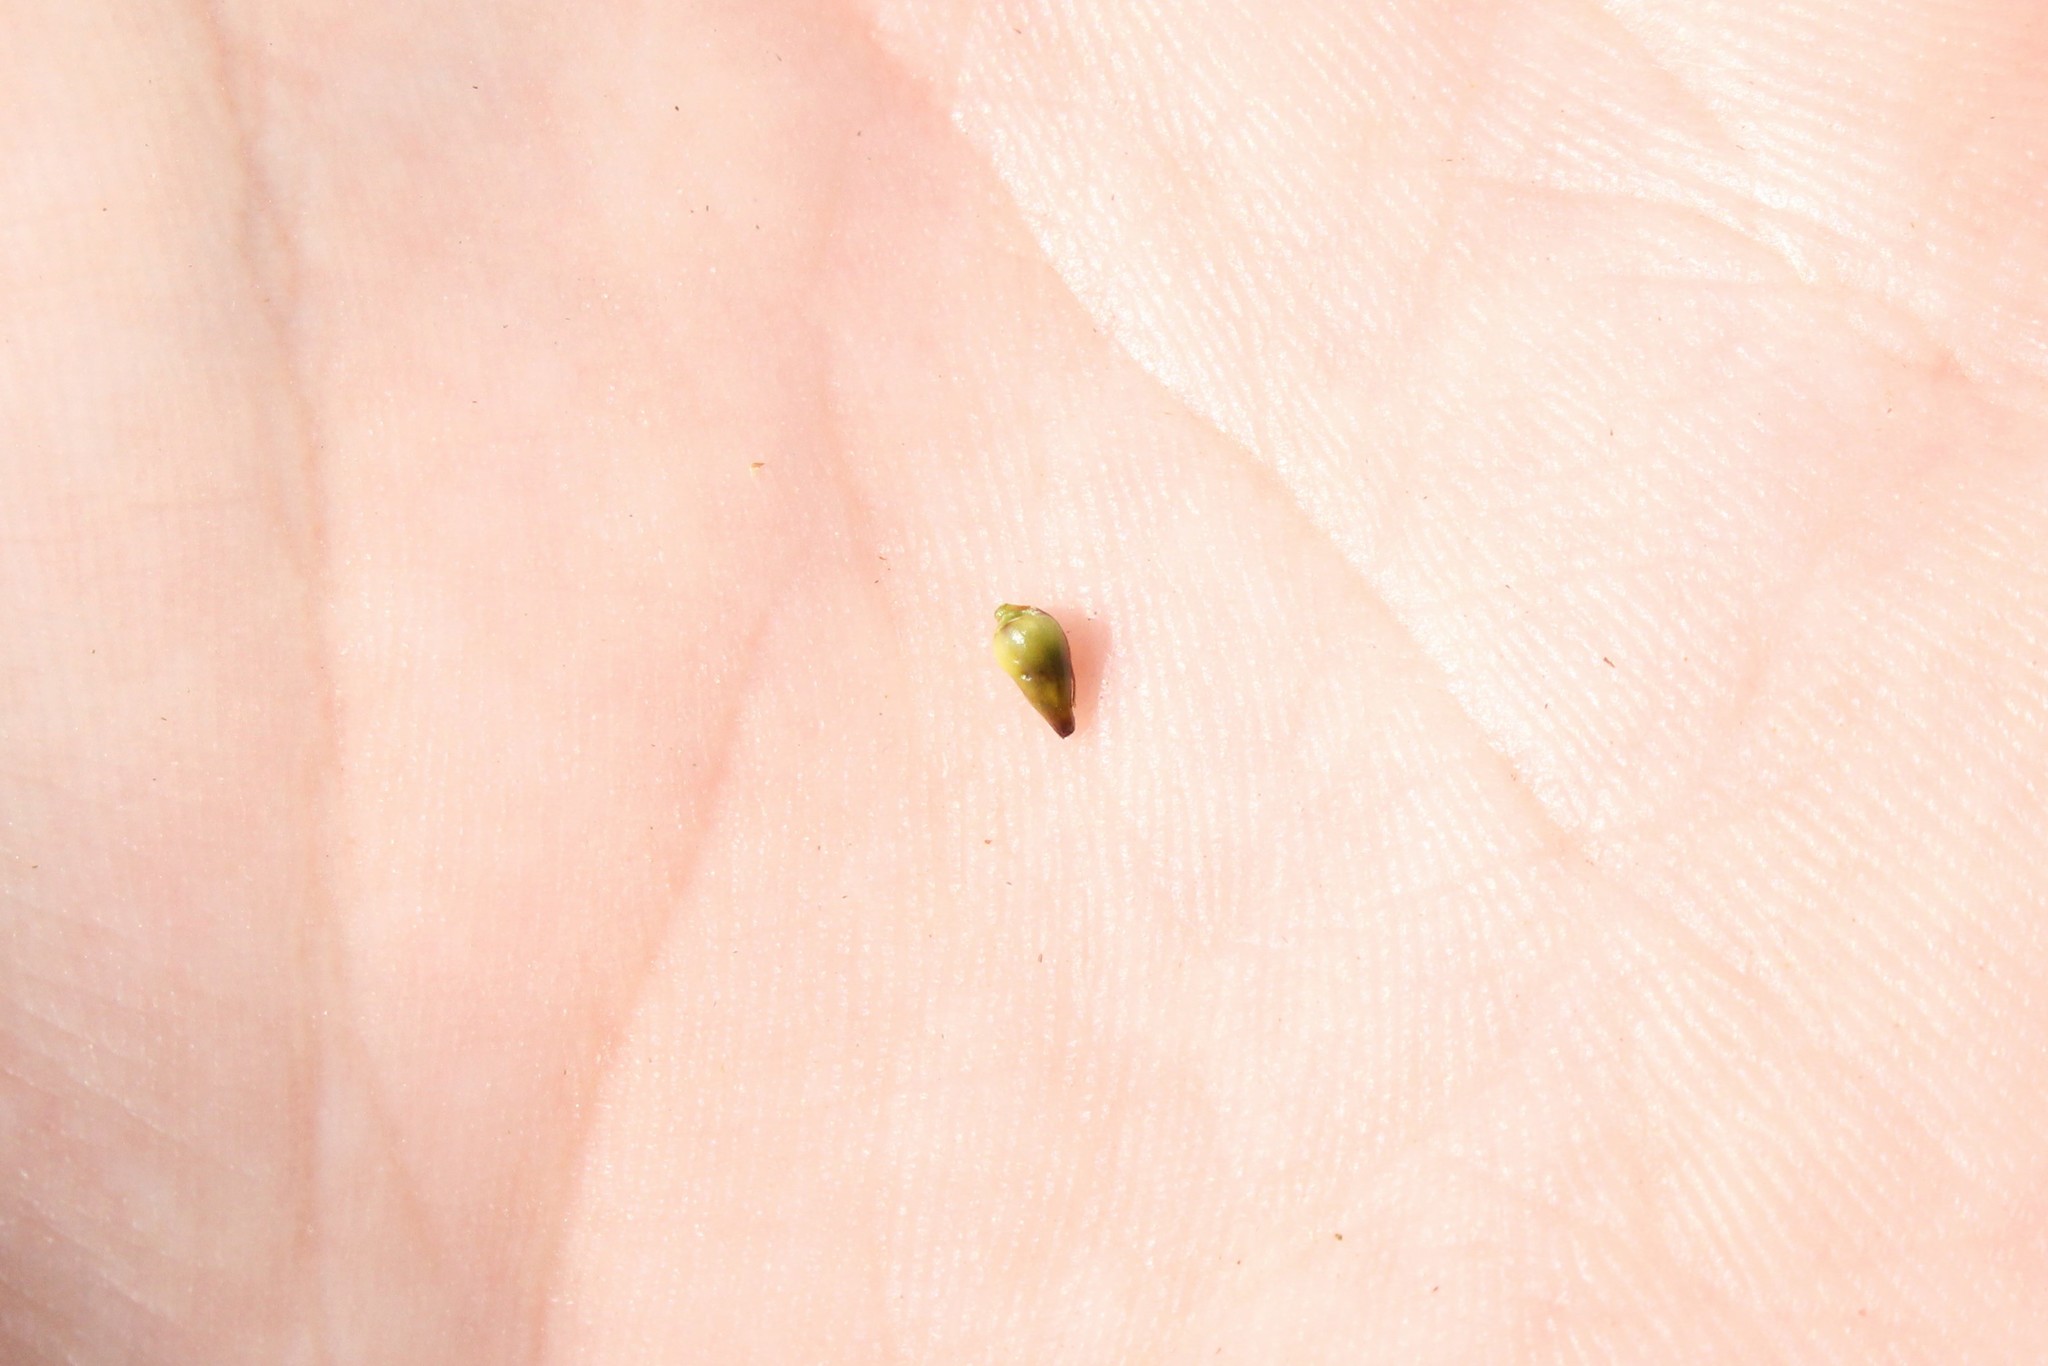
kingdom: Plantae
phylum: Tracheophyta
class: Liliopsida
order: Poales
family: Cyperaceae
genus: Cladium
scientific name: Cladium mariscoides
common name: Smooth sawgrass
